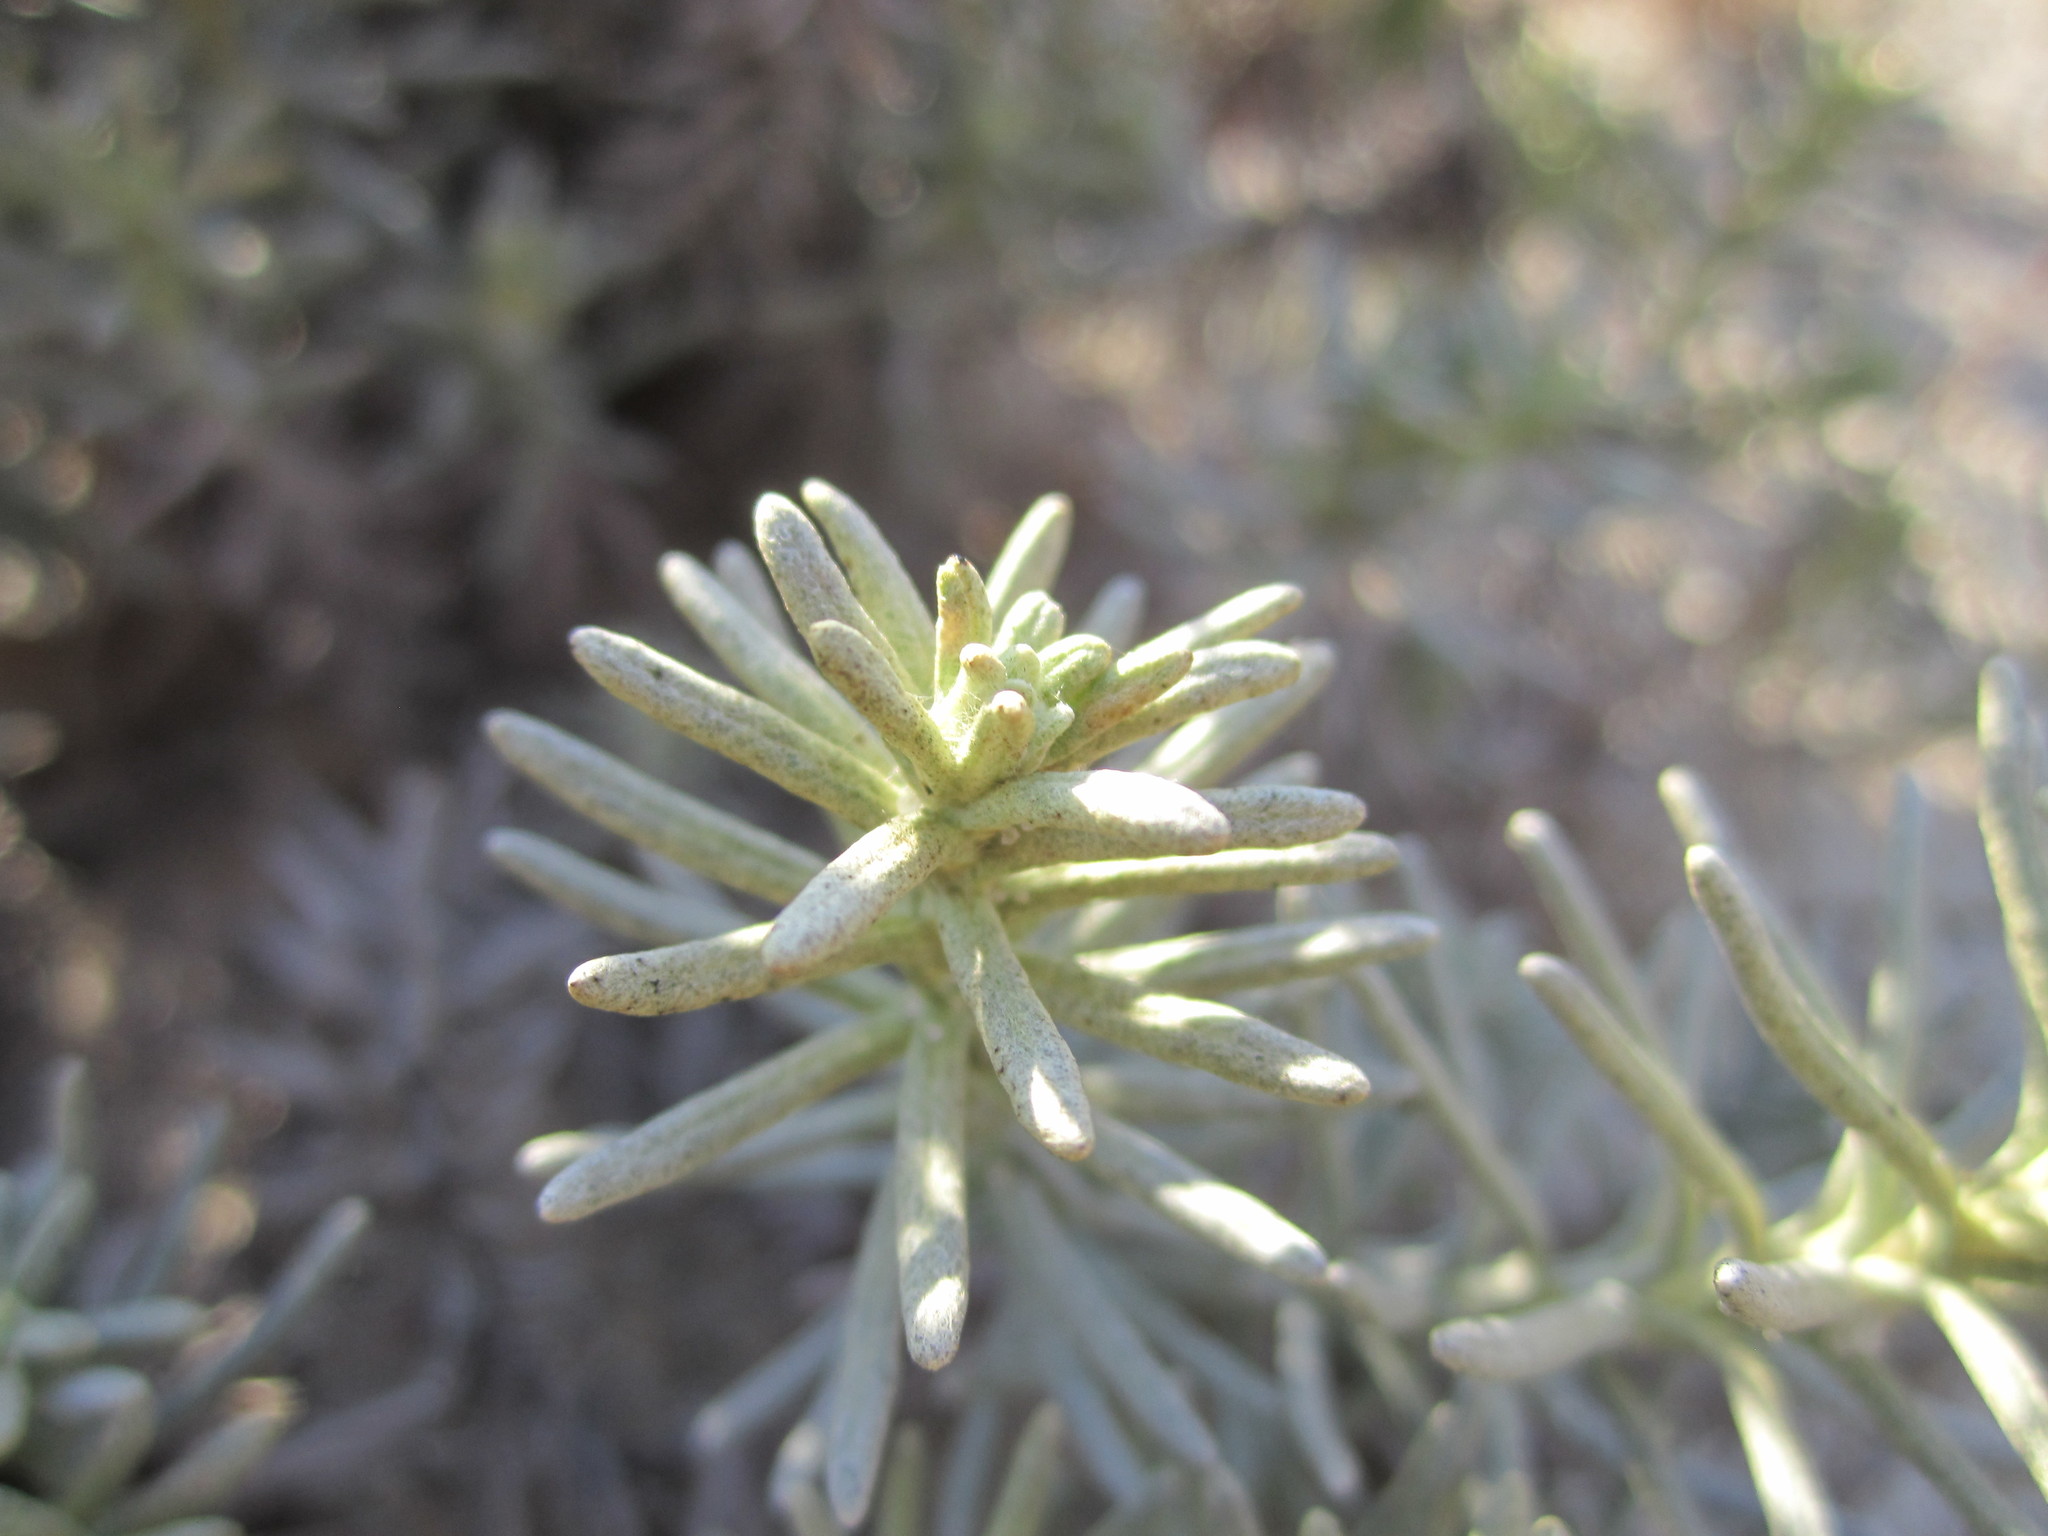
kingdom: Plantae
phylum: Tracheophyta
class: Magnoliopsida
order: Asterales
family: Asteraceae
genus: Helichrysum
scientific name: Helichrysum serotinum
